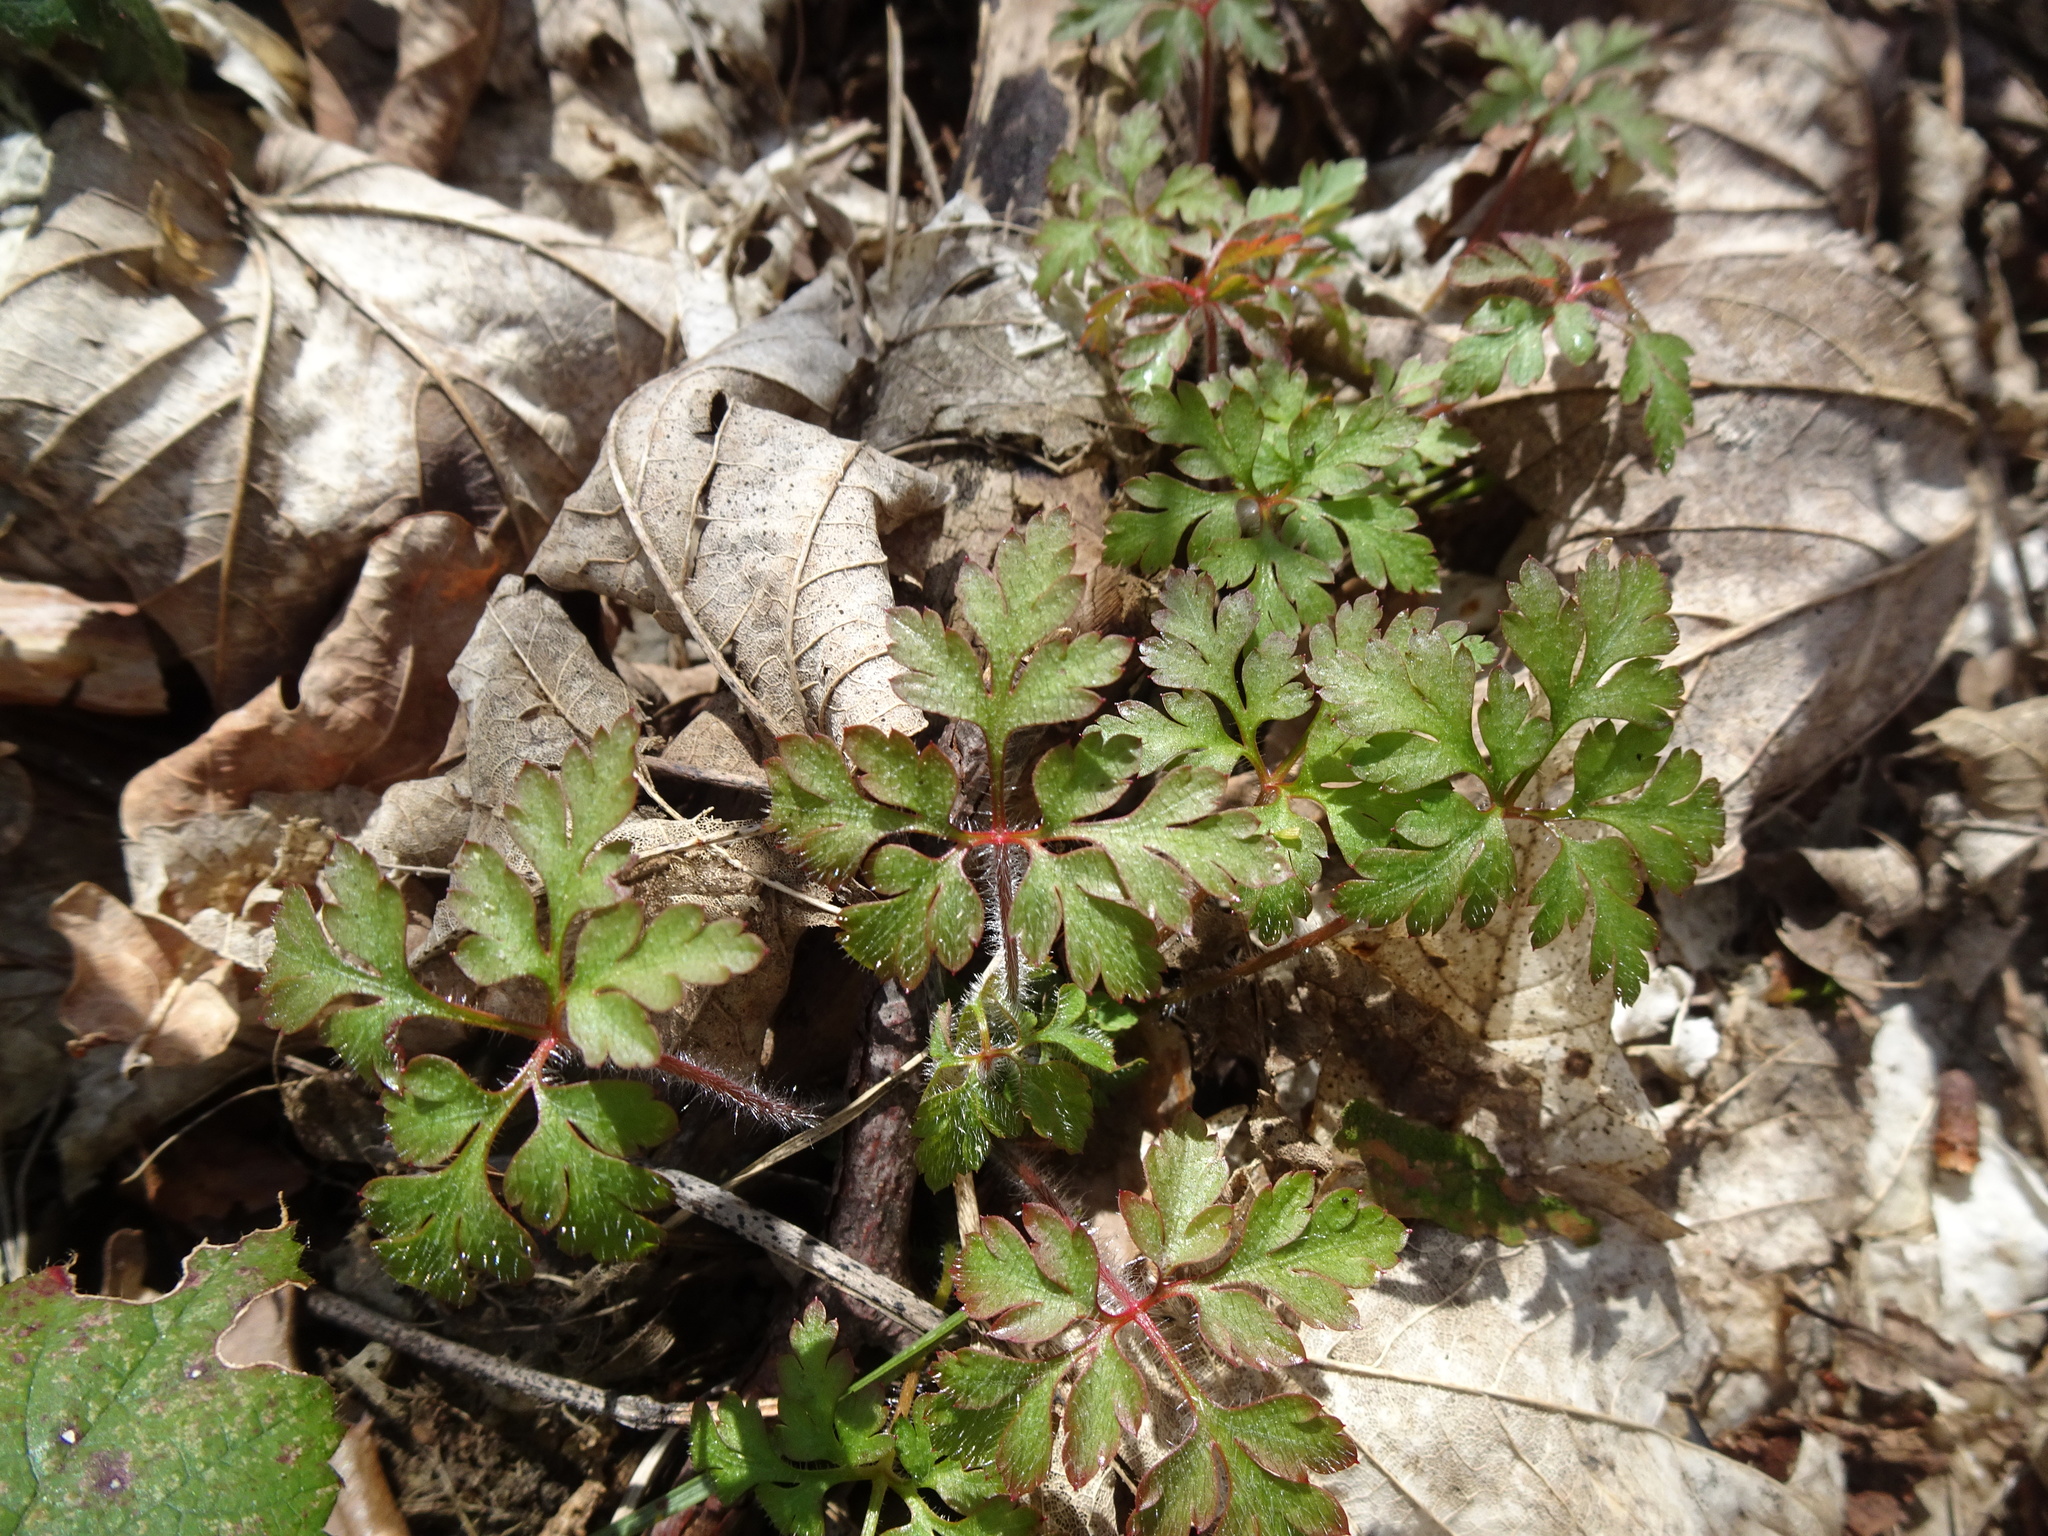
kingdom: Plantae
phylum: Tracheophyta
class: Magnoliopsida
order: Geraniales
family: Geraniaceae
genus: Geranium
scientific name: Geranium robertianum
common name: Herb-robert
